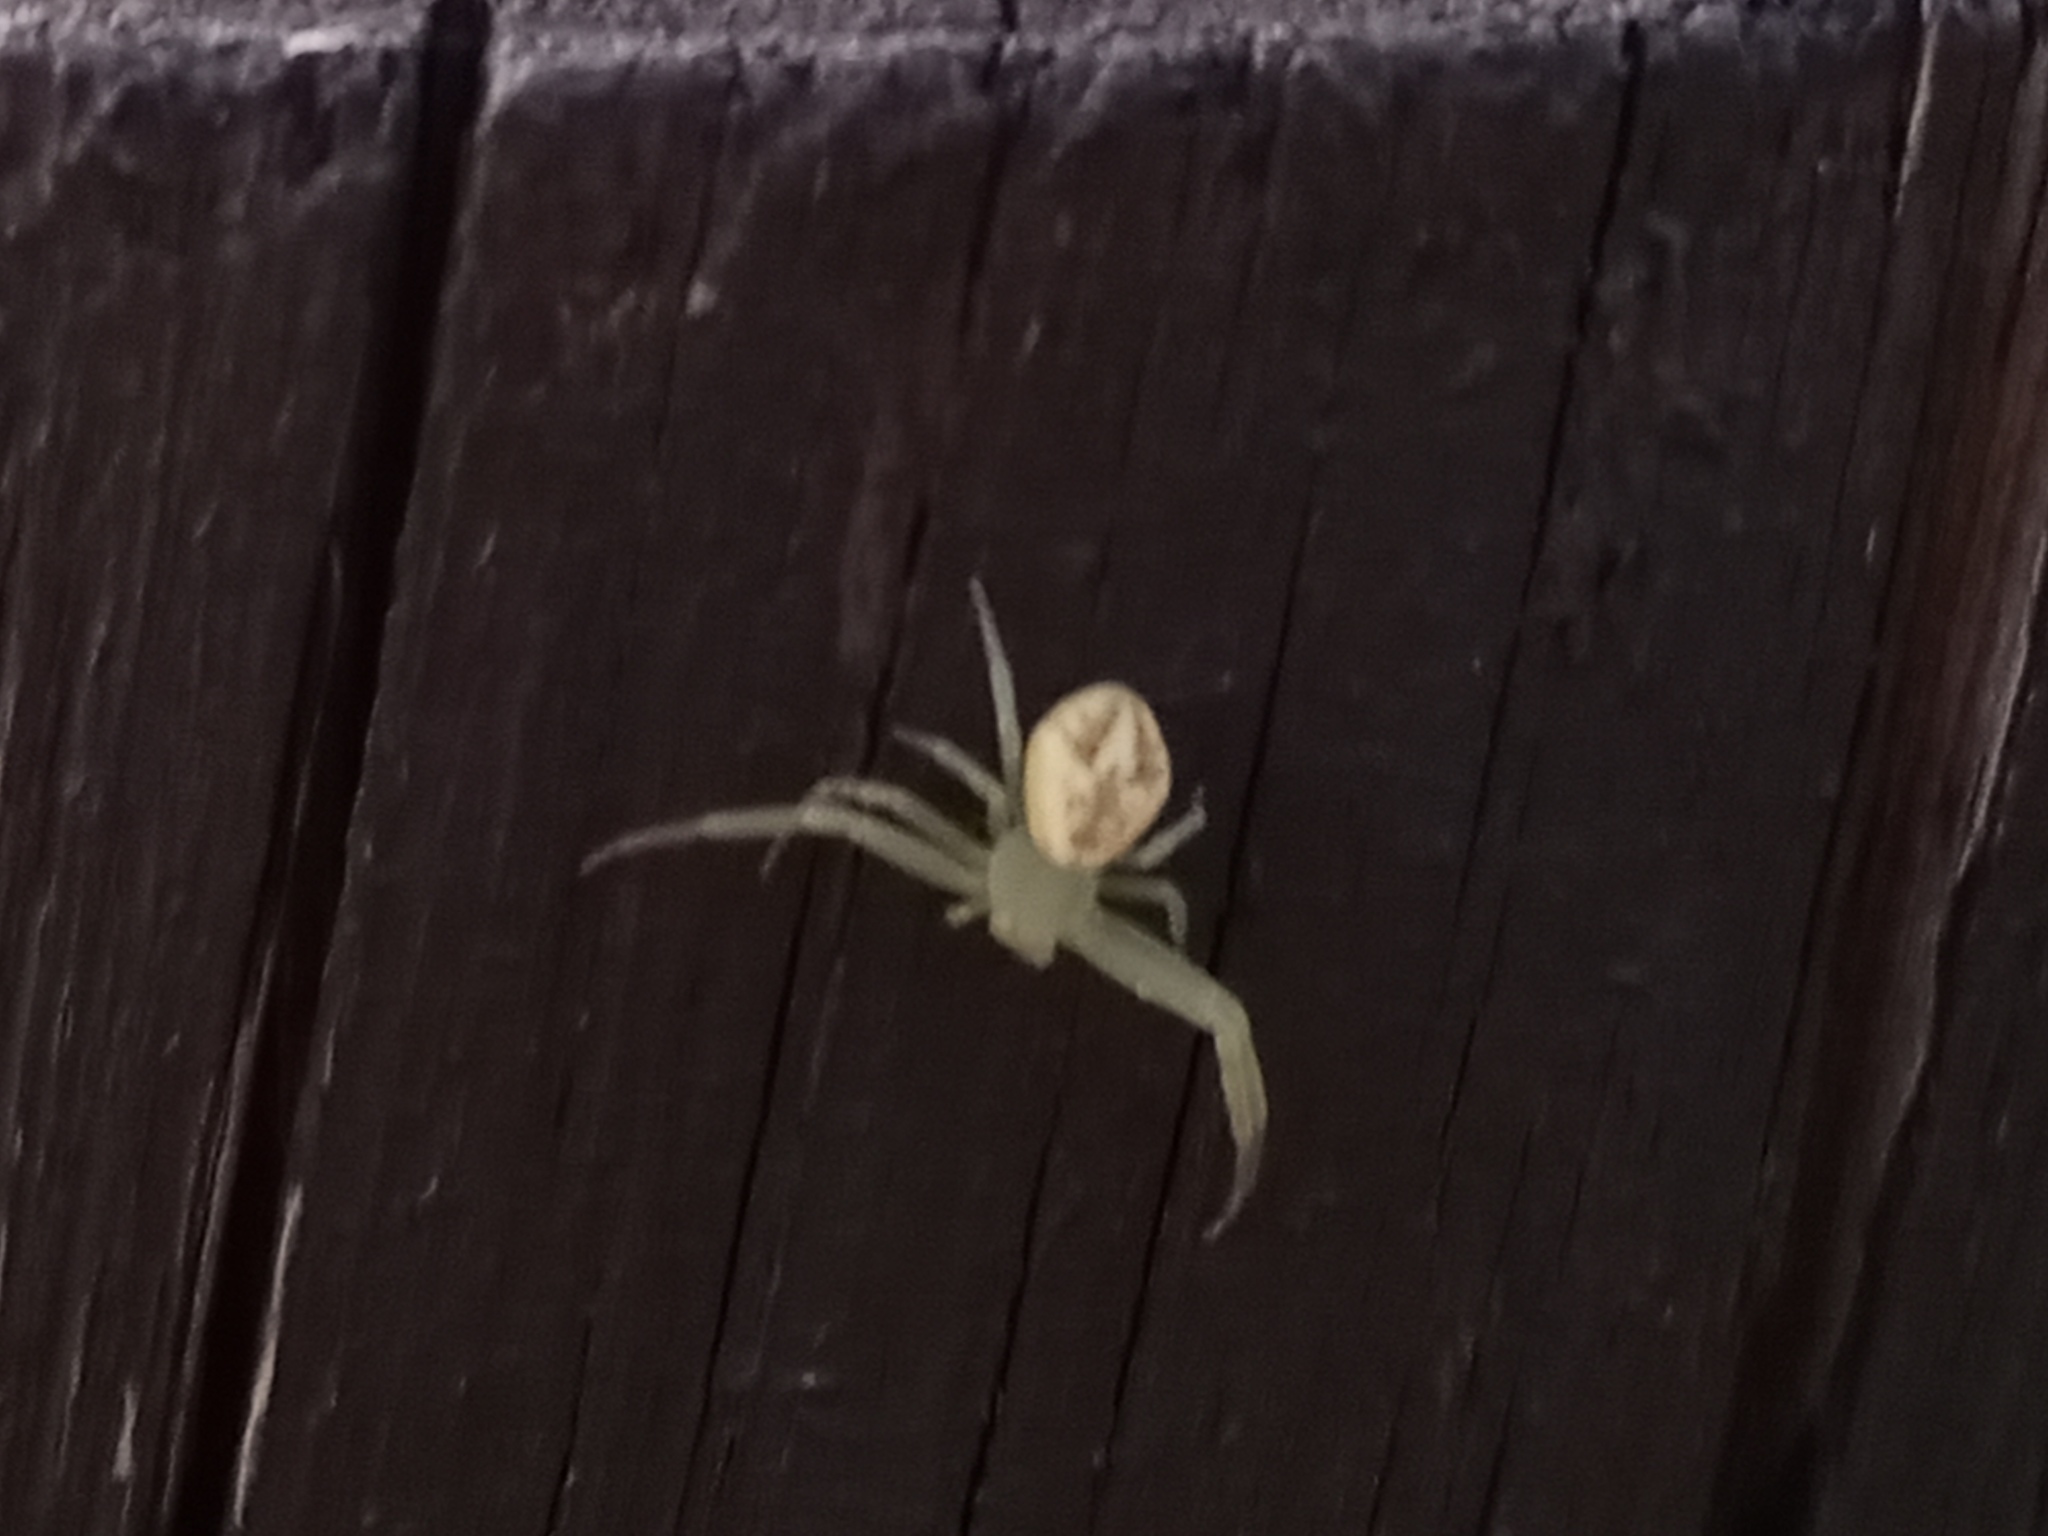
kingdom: Animalia
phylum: Arthropoda
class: Arachnida
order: Araneae
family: Thomisidae
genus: Misumenops
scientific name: Misumenops
